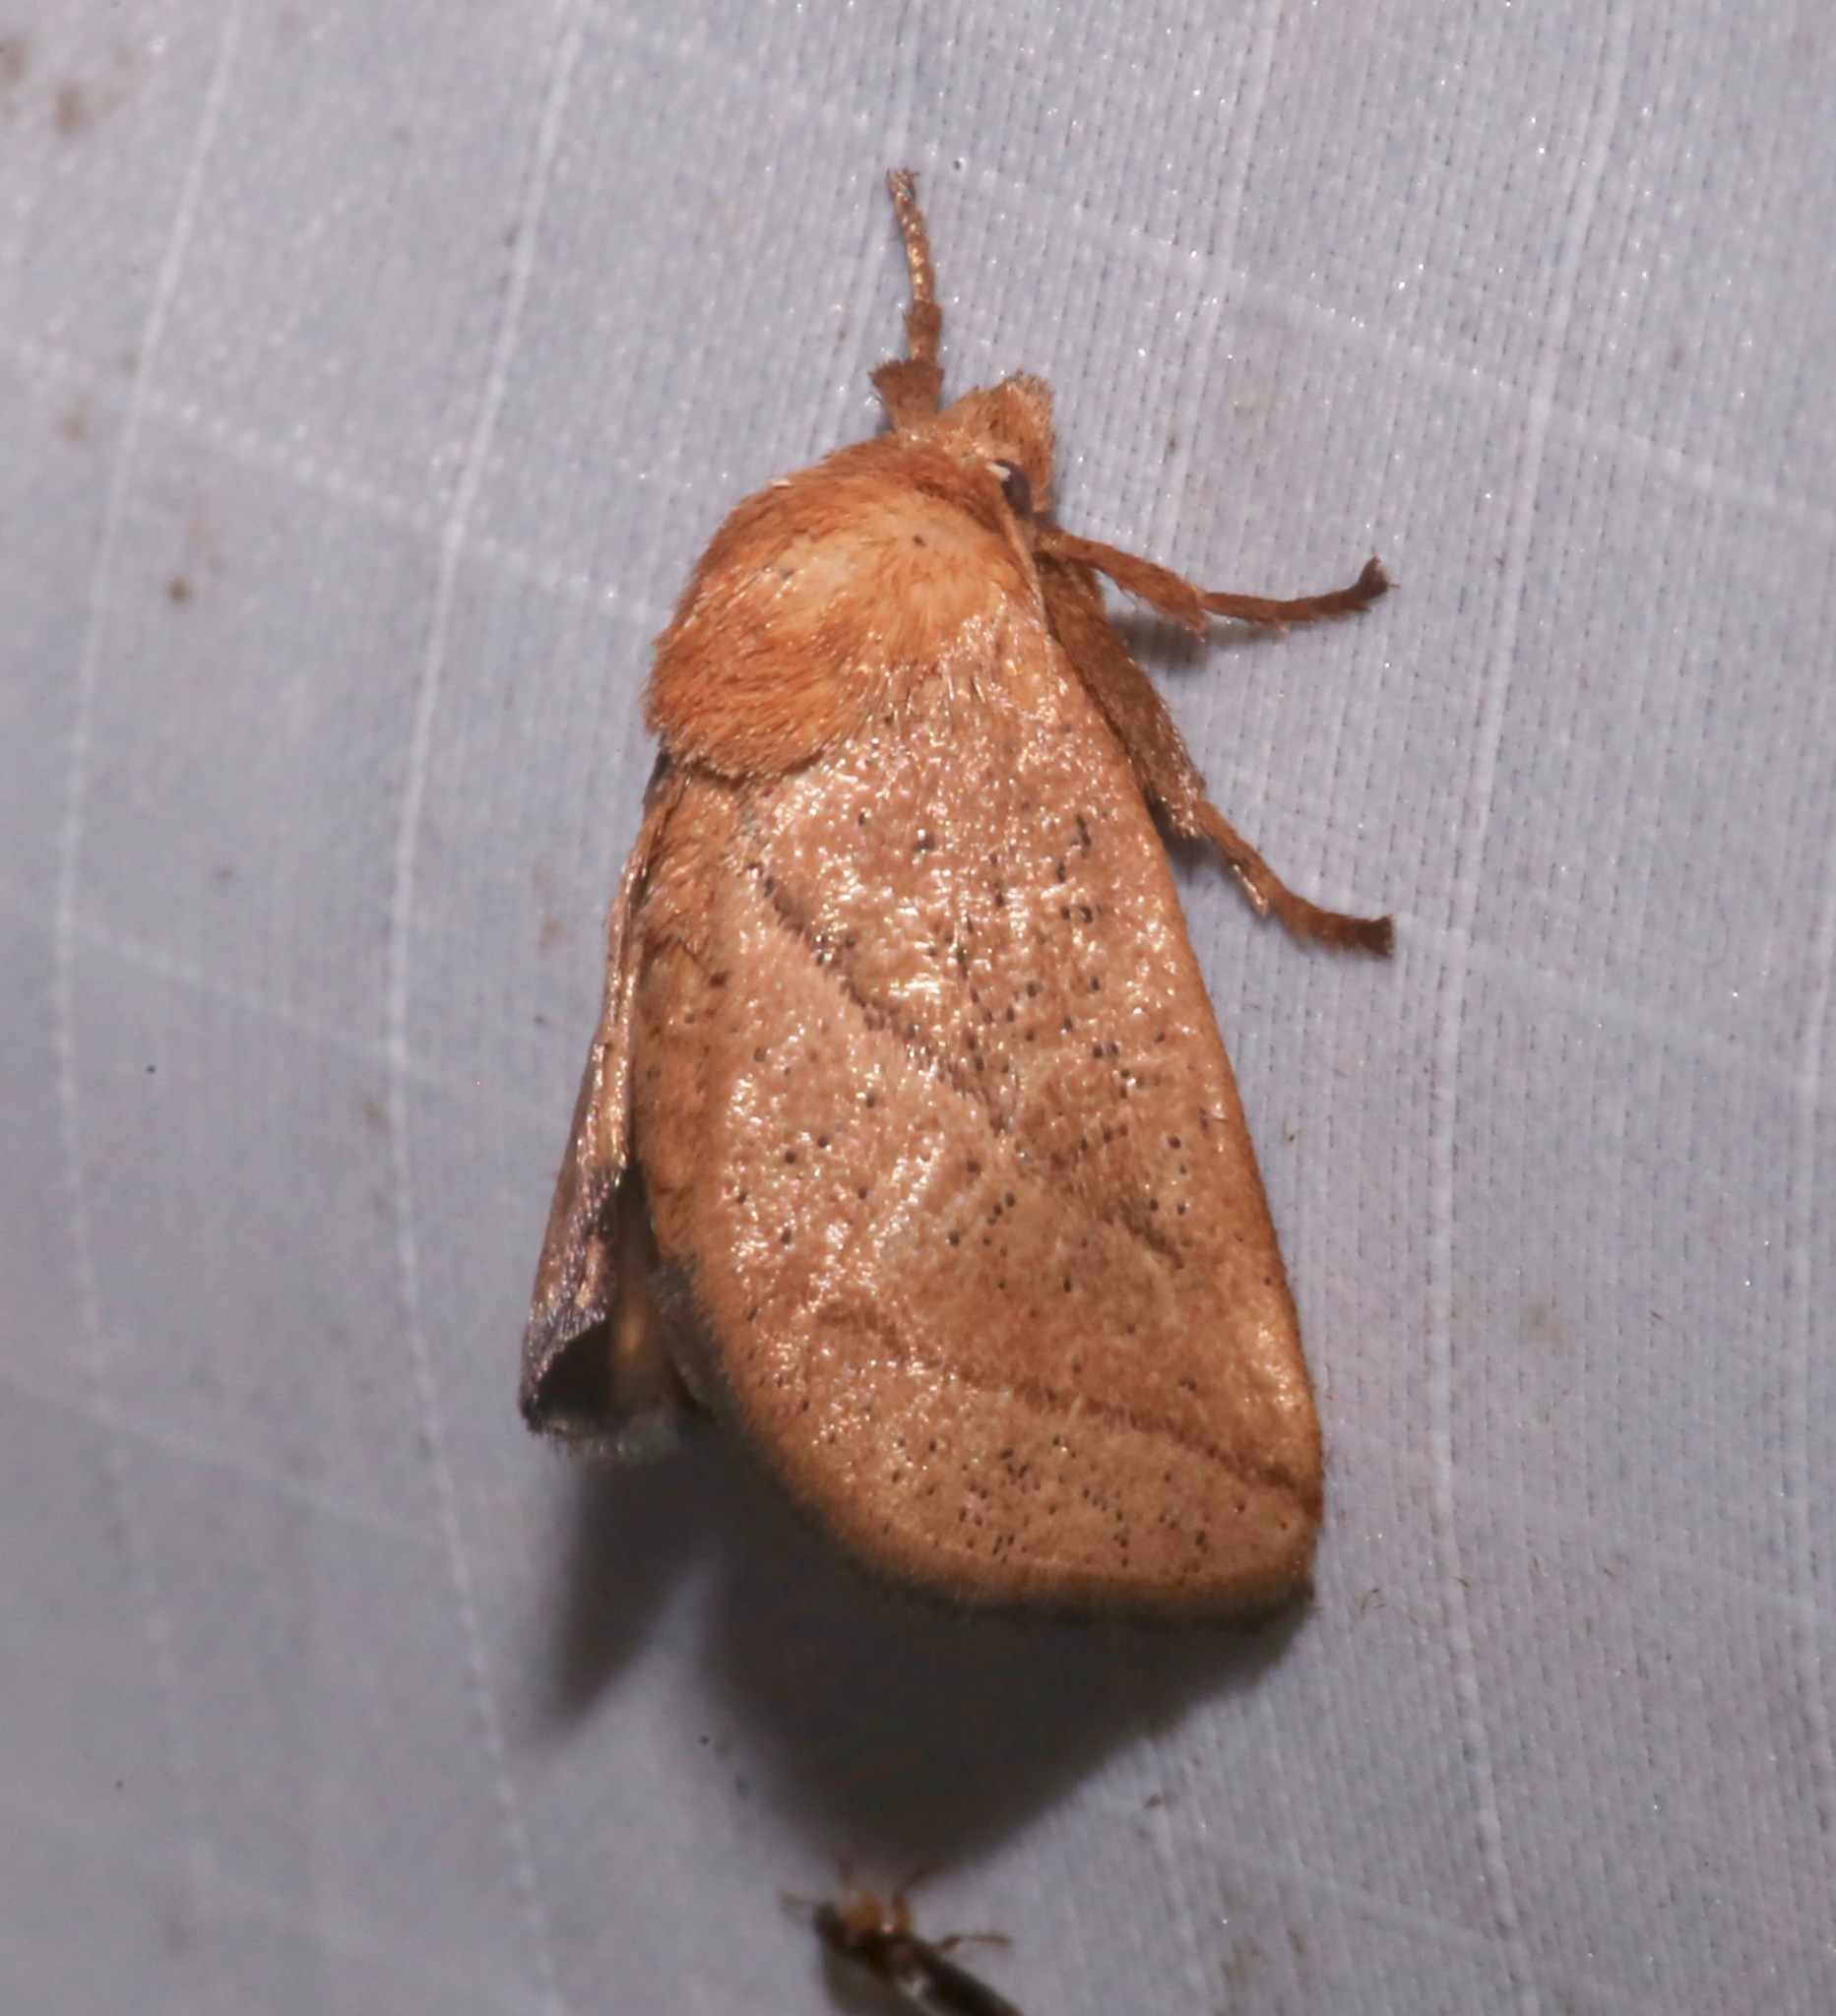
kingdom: Animalia
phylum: Arthropoda
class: Insecta
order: Lepidoptera
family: Limacodidae
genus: Natada
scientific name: Natada nasoni
